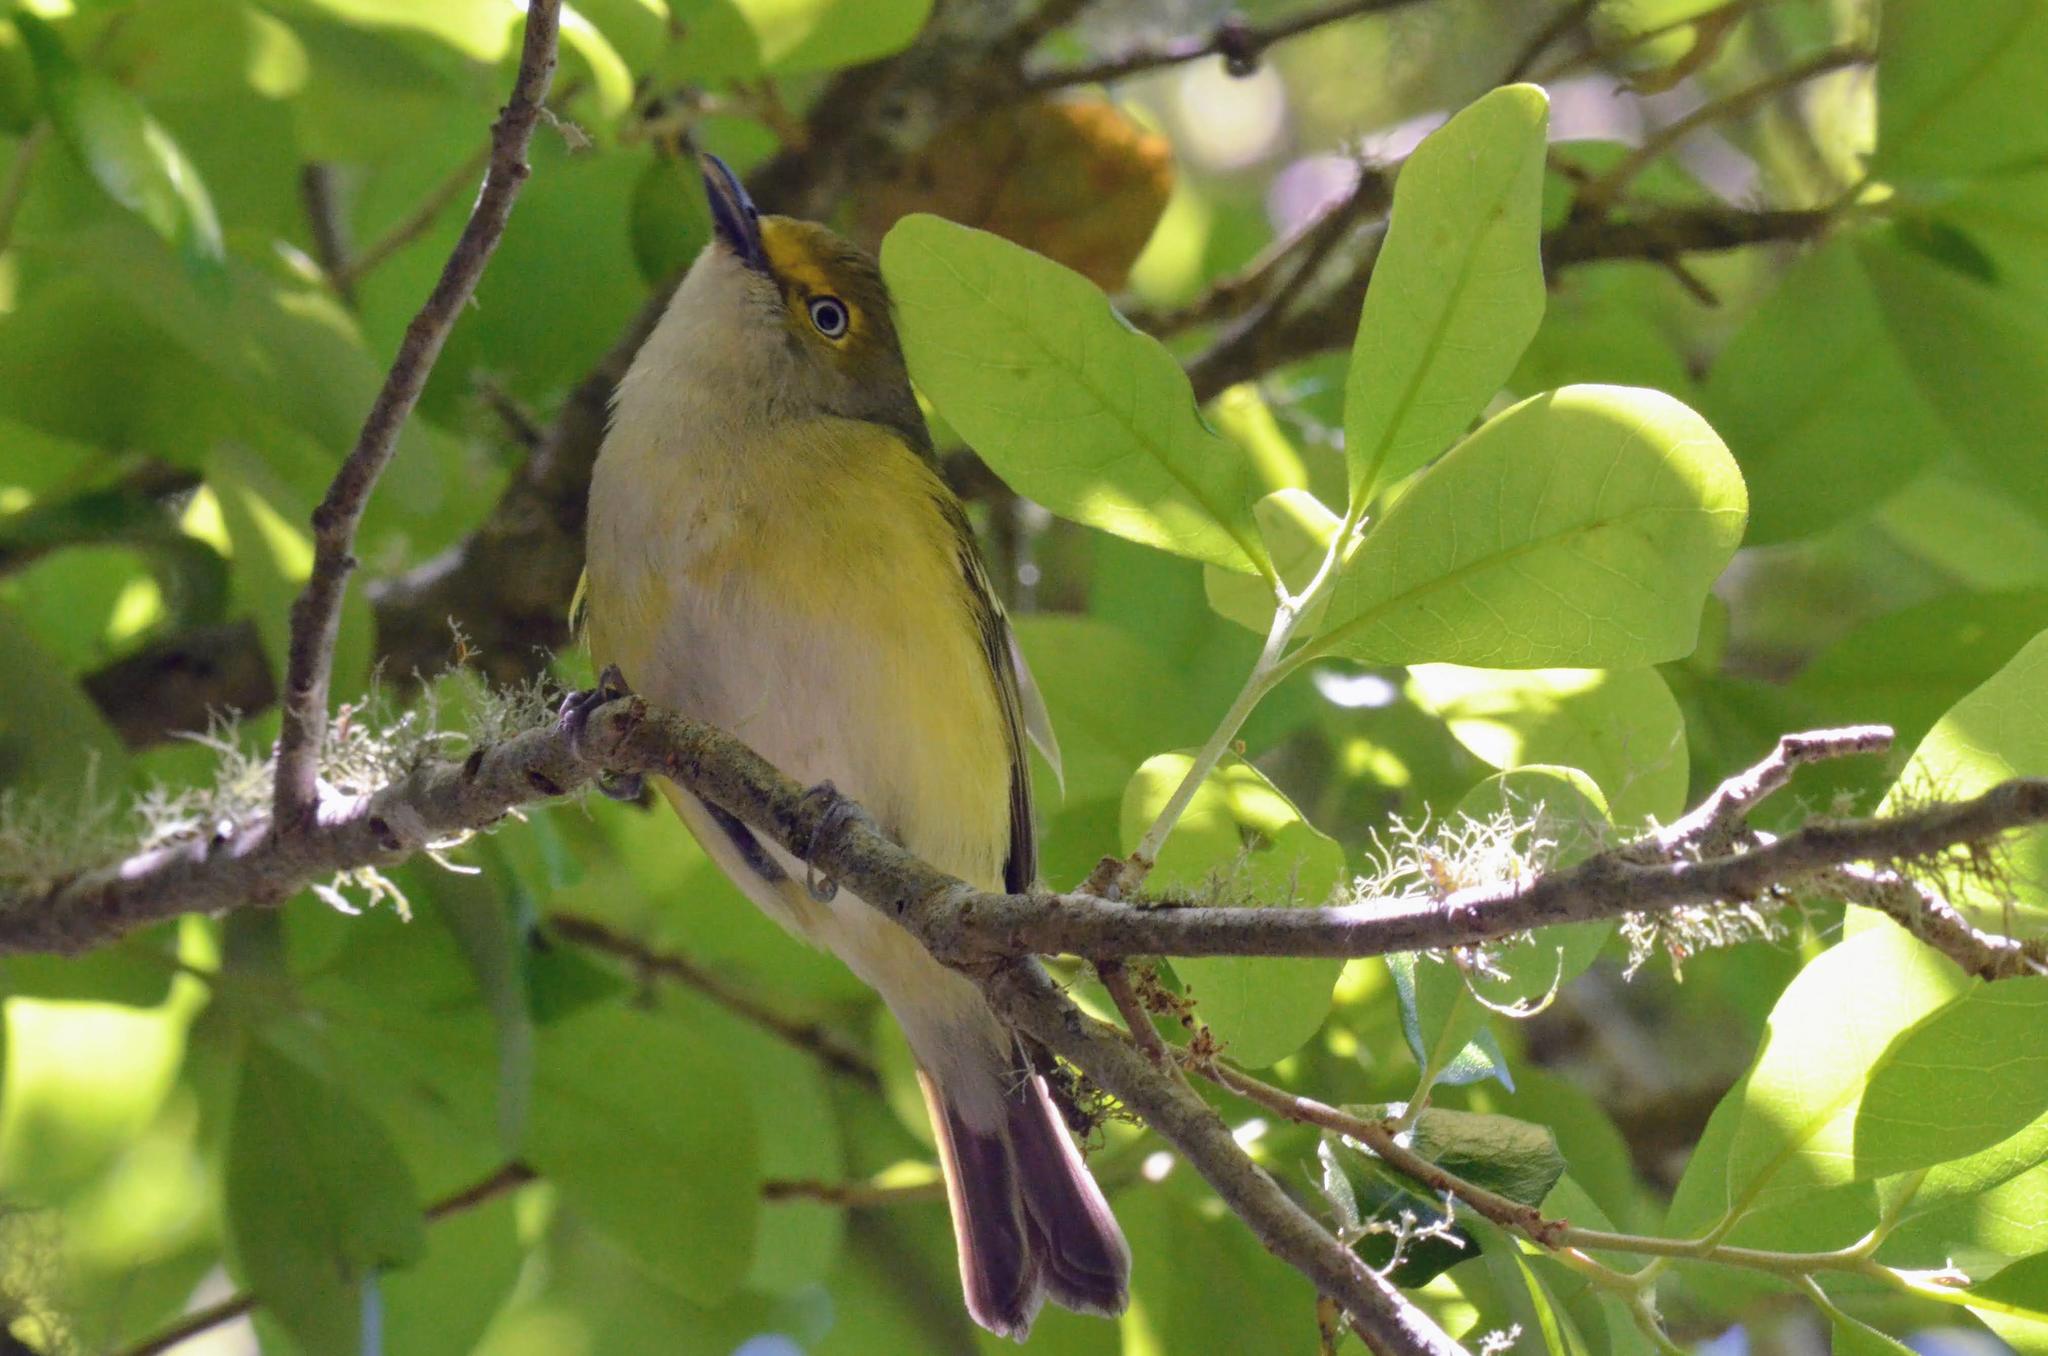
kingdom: Animalia
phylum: Chordata
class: Aves
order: Passeriformes
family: Vireonidae
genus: Vireo
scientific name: Vireo griseus
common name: White-eyed vireo
